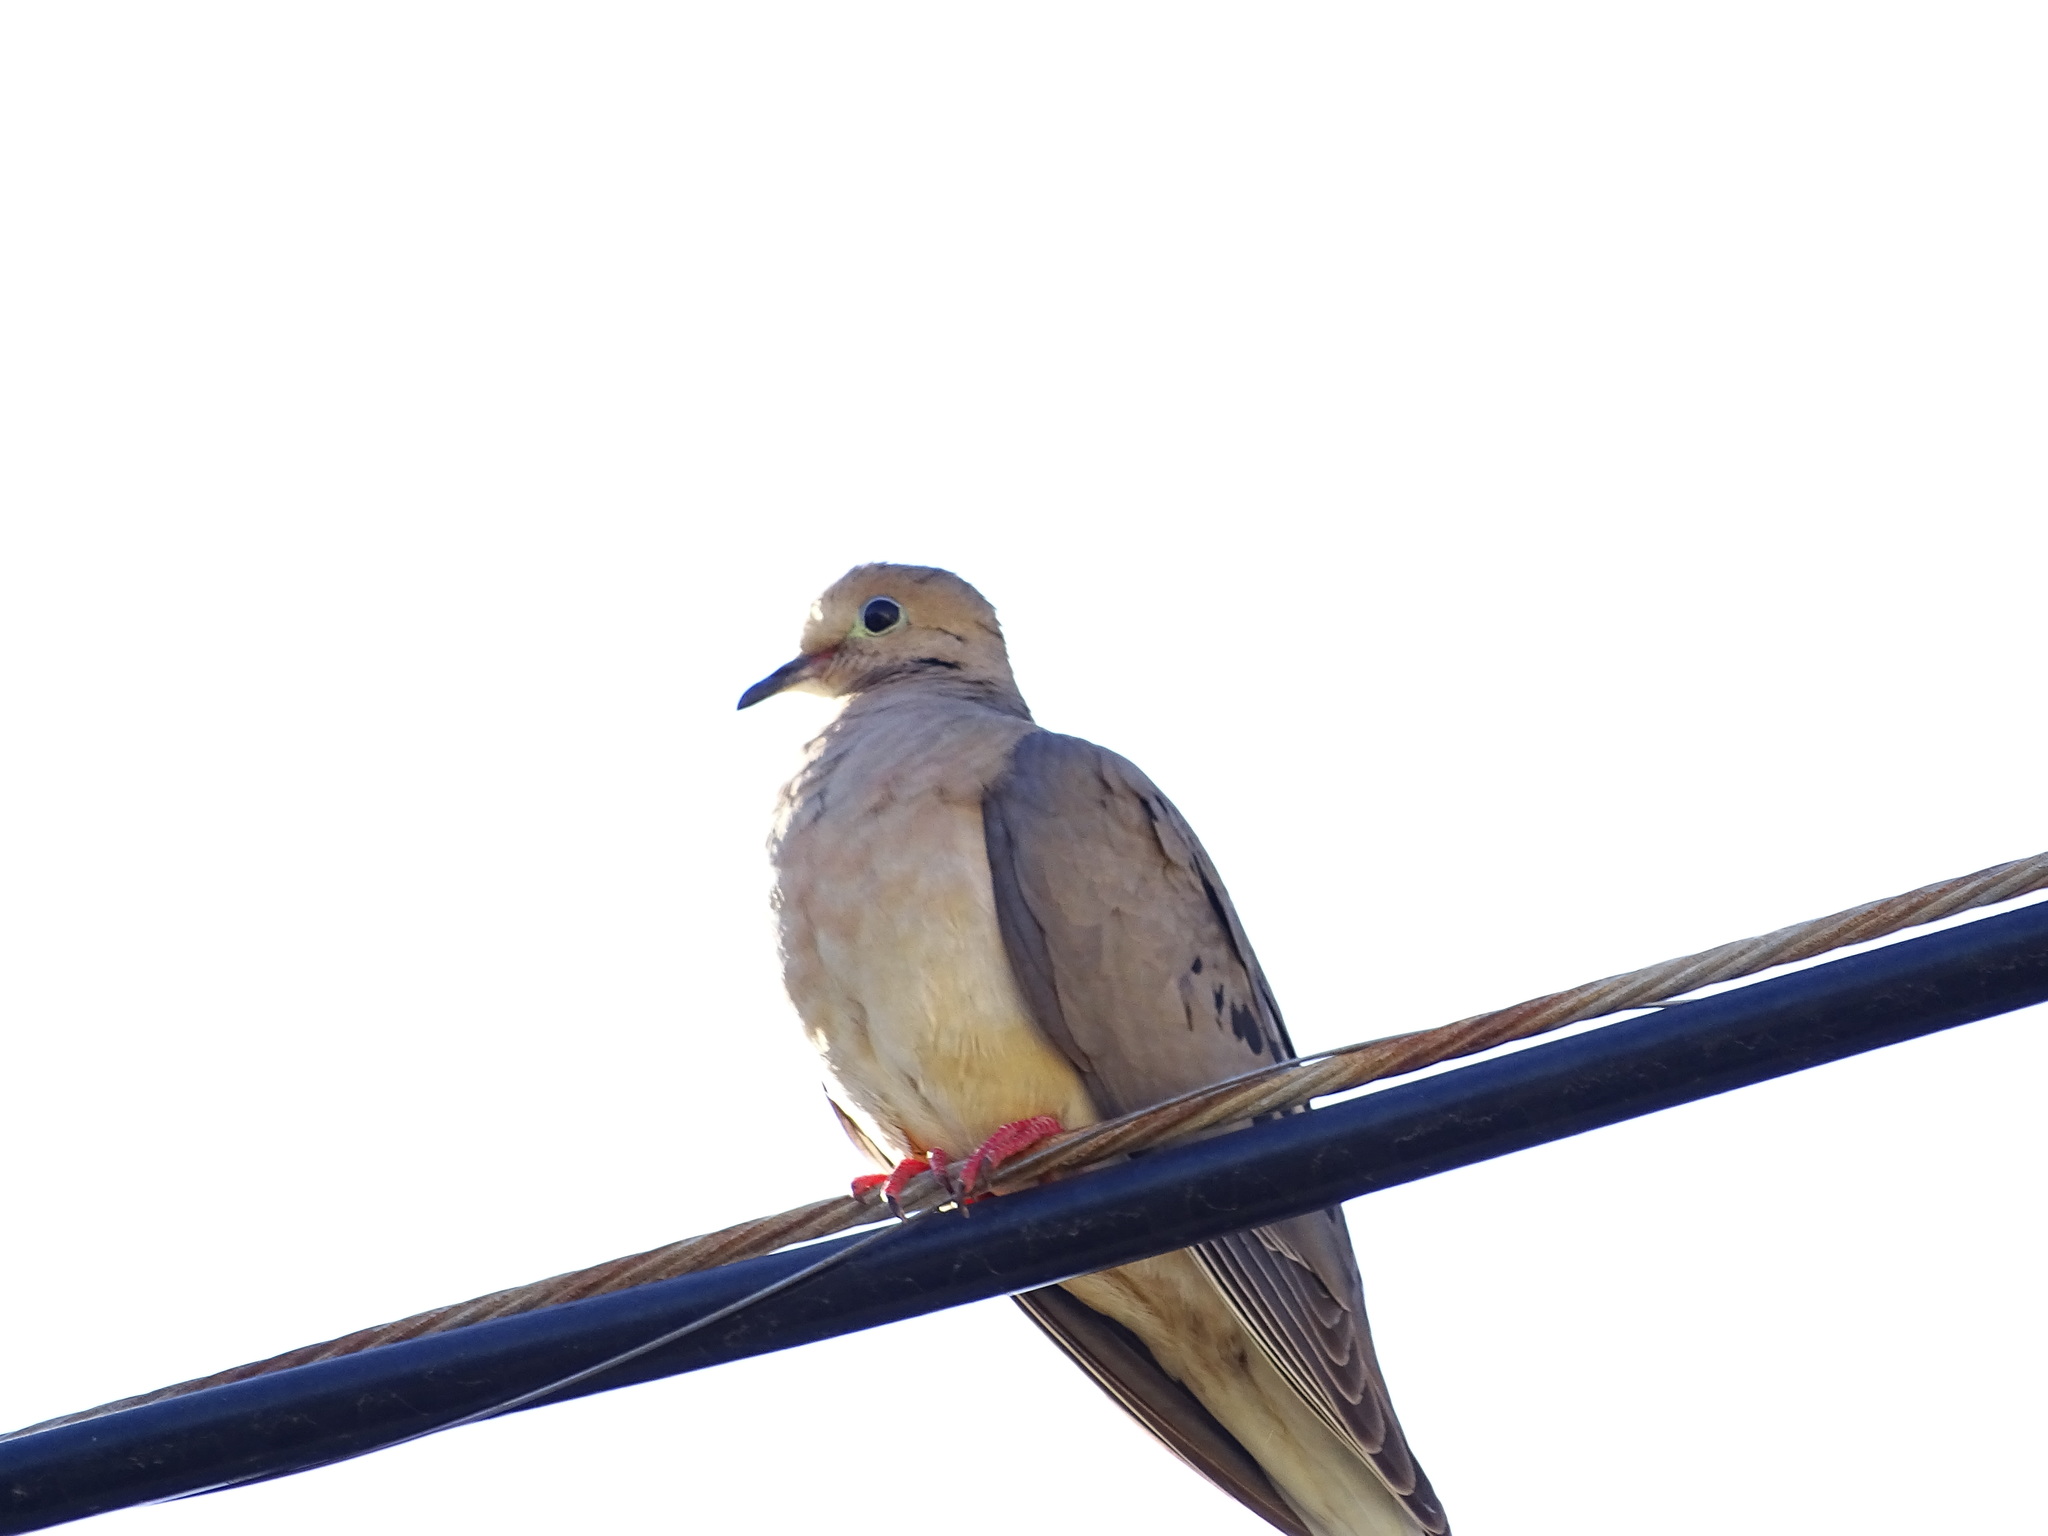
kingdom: Animalia
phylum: Chordata
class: Aves
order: Columbiformes
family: Columbidae
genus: Zenaida
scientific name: Zenaida macroura
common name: Mourning dove
